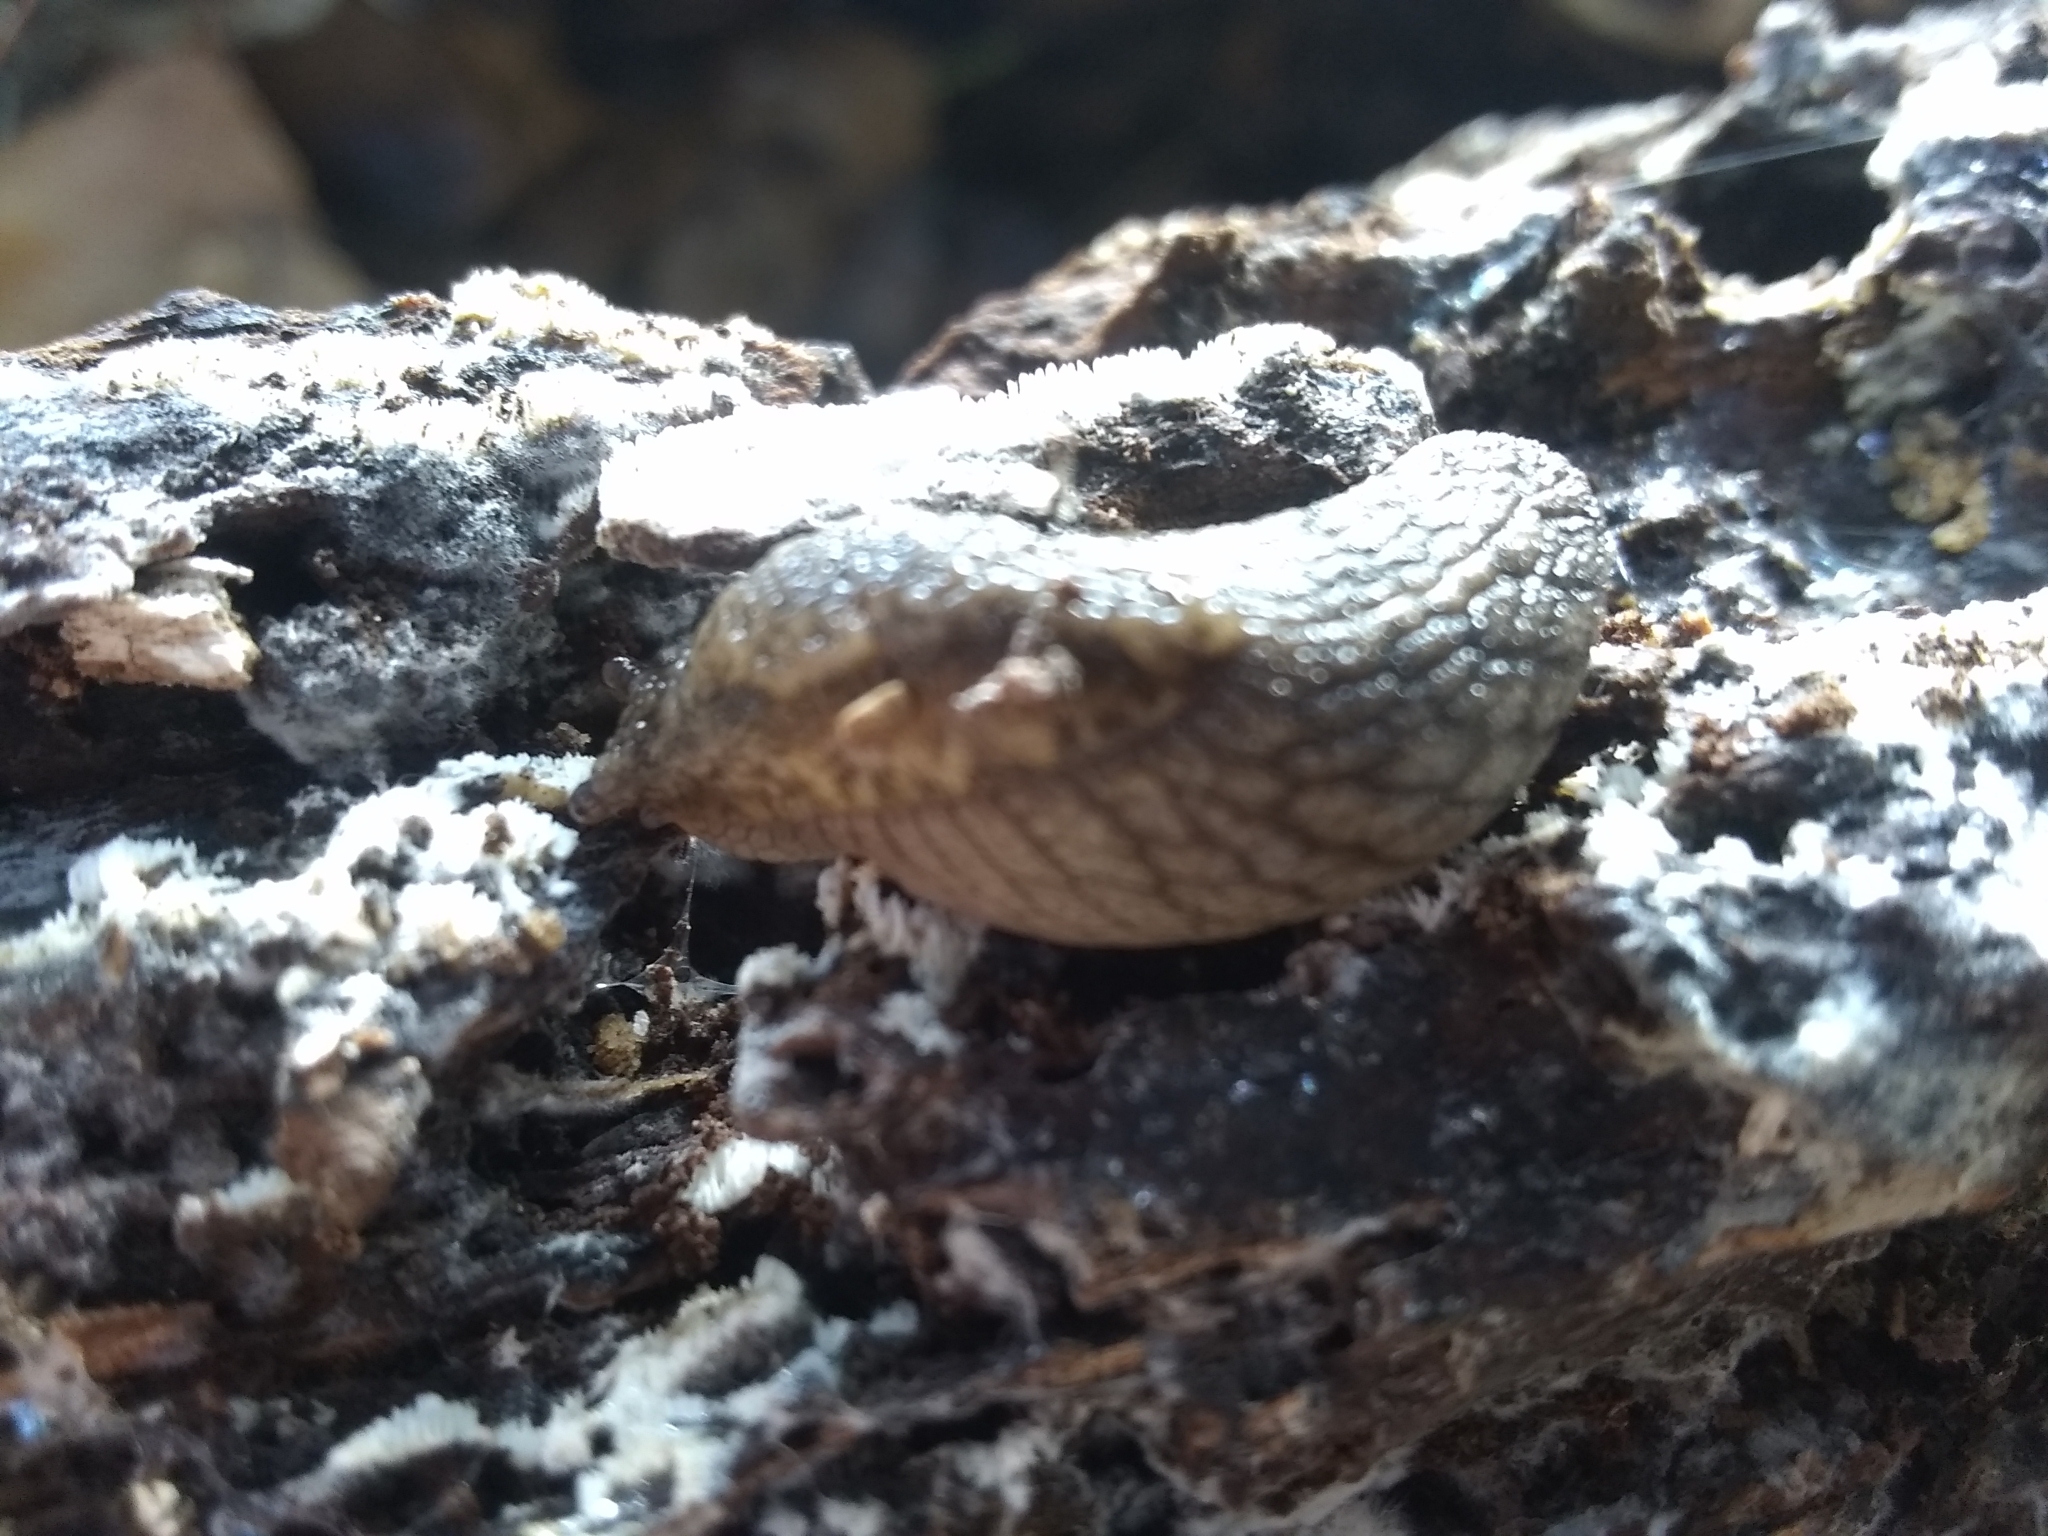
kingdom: Animalia
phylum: Mollusca
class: Gastropoda
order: Stylommatophora
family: Ariolimacidae
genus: Prophysaon
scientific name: Prophysaon andersonii
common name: Reticulate taildropper
